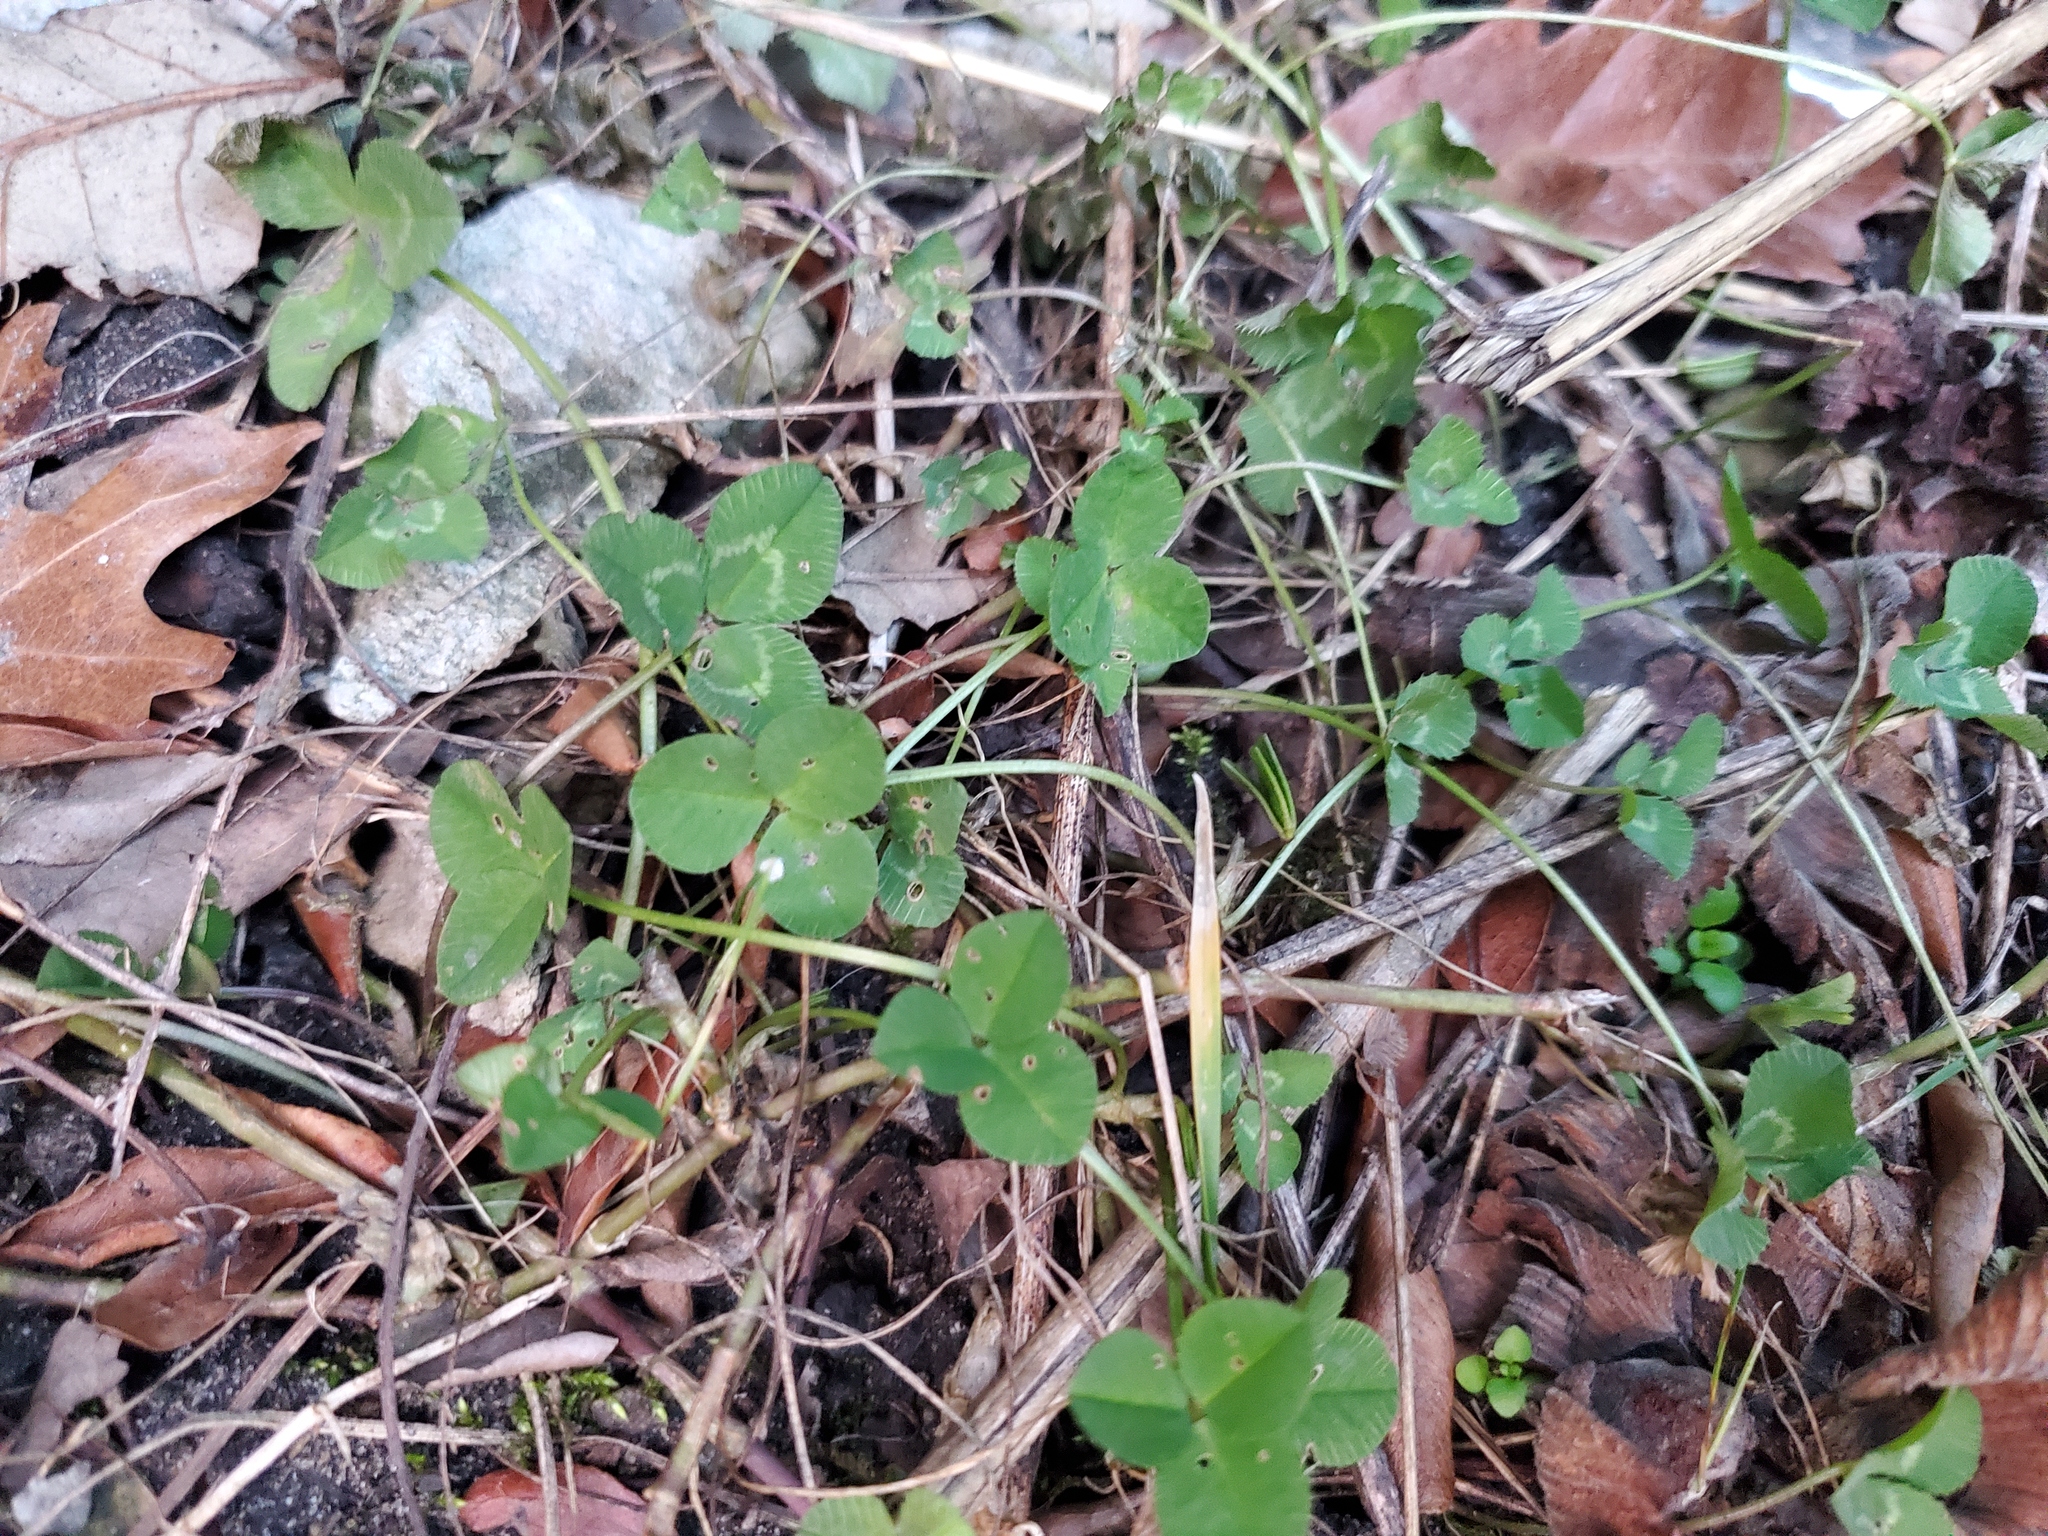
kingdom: Plantae
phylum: Tracheophyta
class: Magnoliopsida
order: Fabales
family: Fabaceae
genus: Trifolium
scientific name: Trifolium repens
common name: White clover
